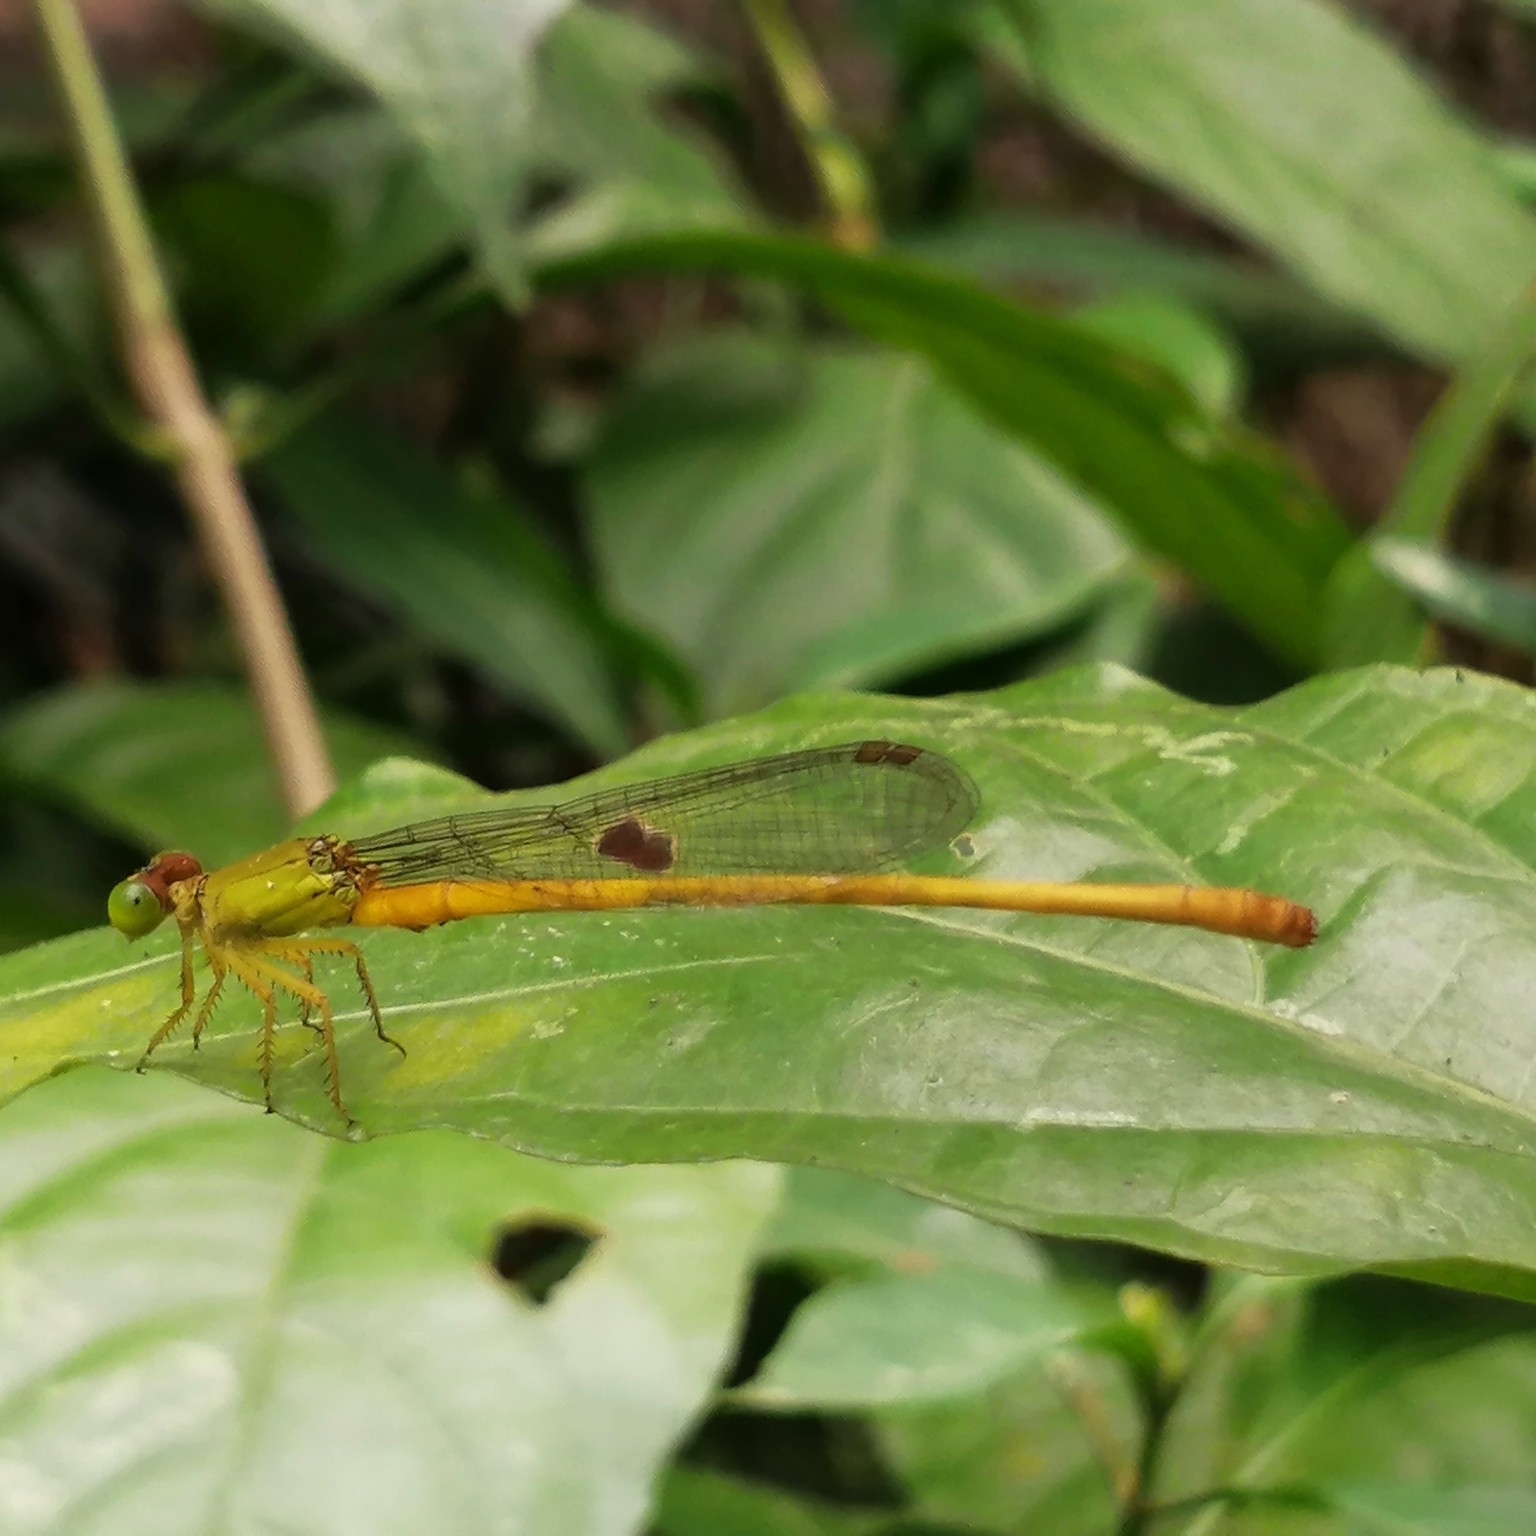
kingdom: Animalia
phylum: Arthropoda
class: Insecta
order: Odonata
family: Coenagrionidae
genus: Ceriagrion
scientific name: Ceriagrion coromandelianum
